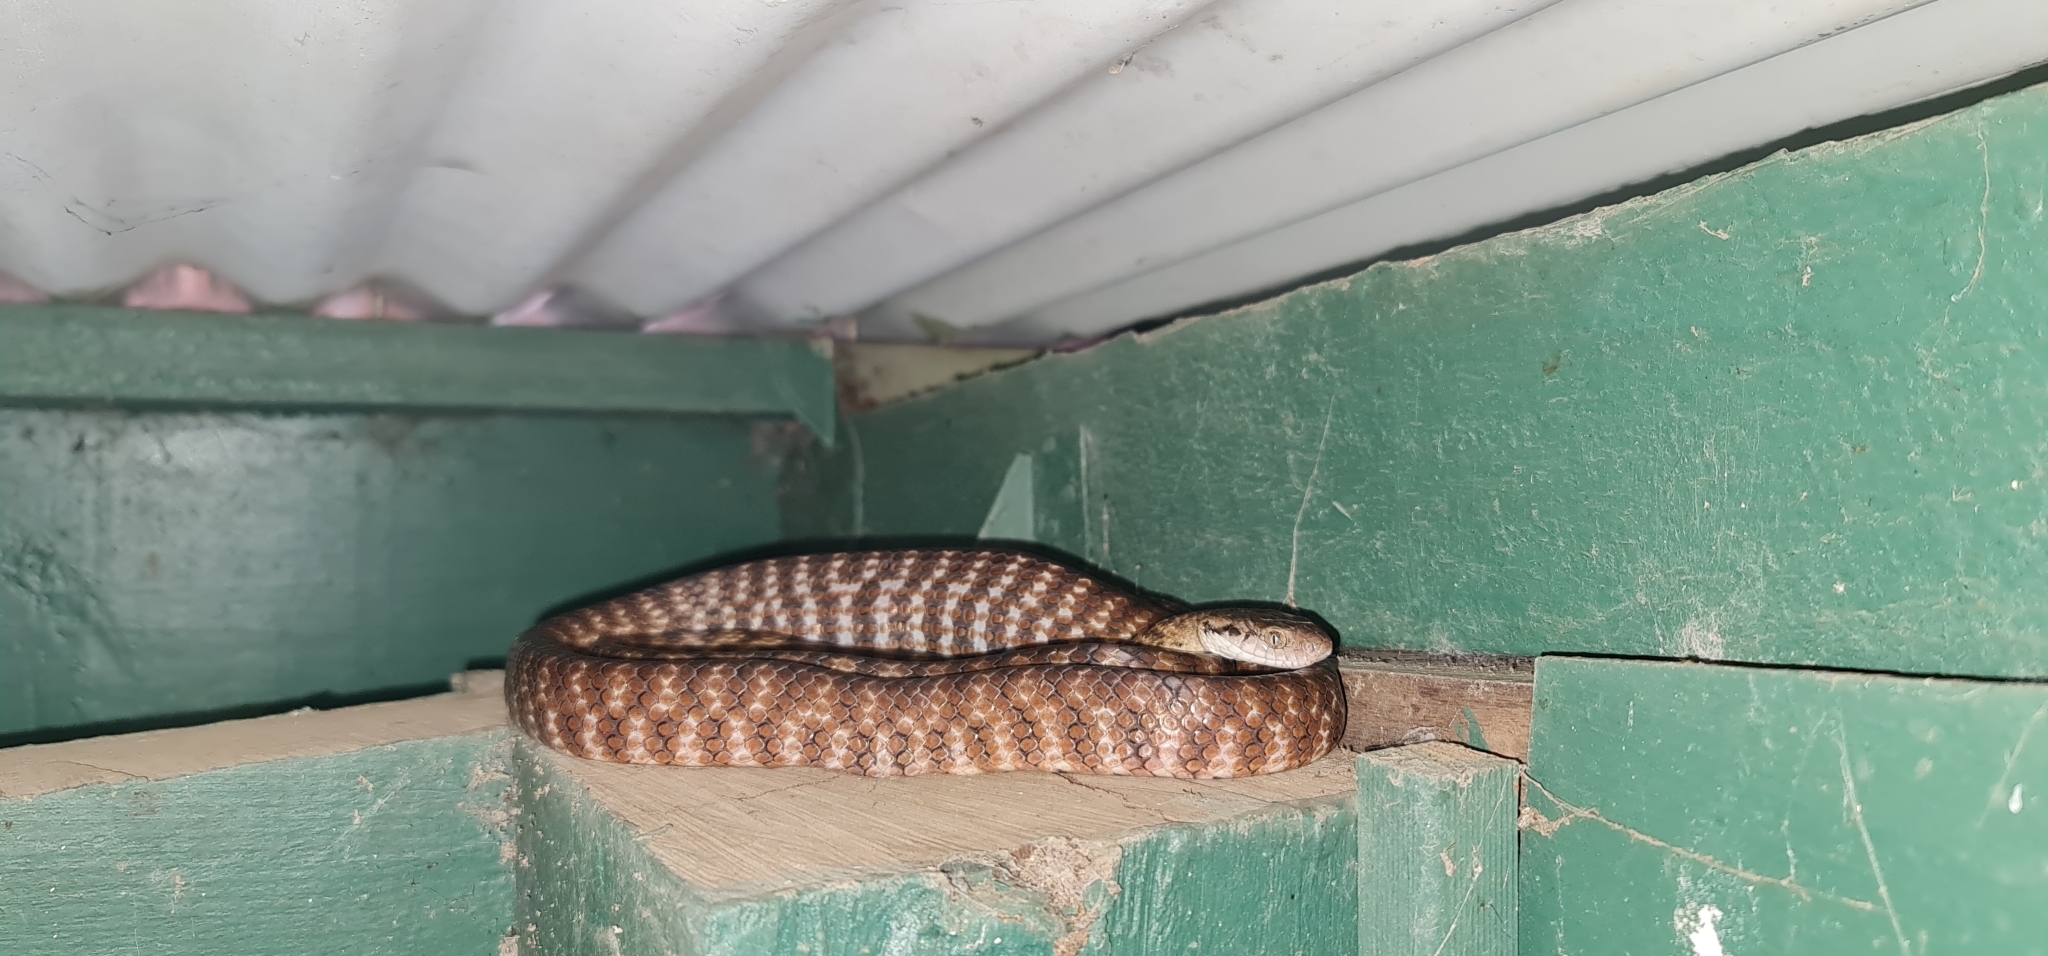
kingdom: Animalia
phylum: Chordata
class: Squamata
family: Colubridae
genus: Boiga
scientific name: Boiga irregularis
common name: Brown tree snake
